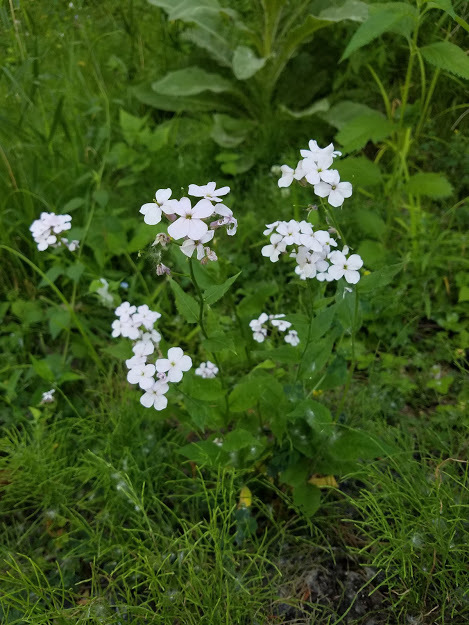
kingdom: Plantae
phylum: Tracheophyta
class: Magnoliopsida
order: Brassicales
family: Brassicaceae
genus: Hesperis
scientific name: Hesperis matronalis
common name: Dame's-violet
